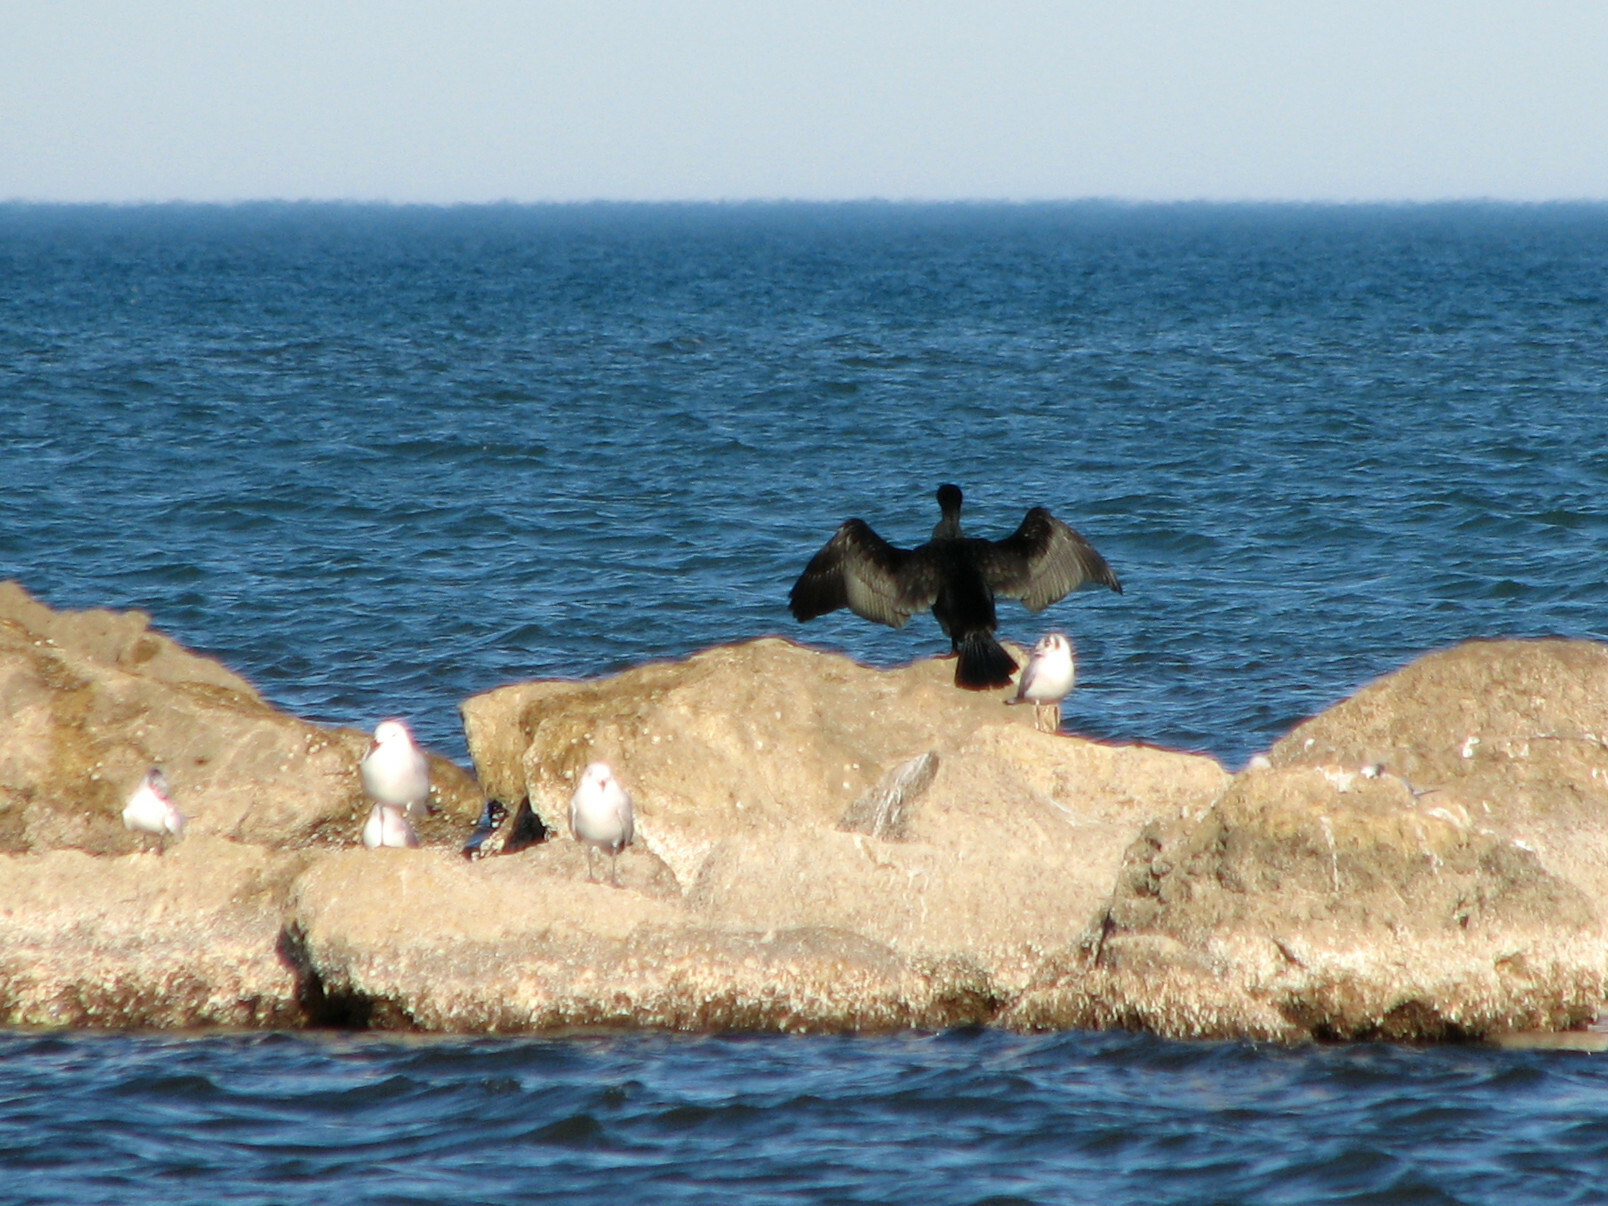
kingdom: Animalia
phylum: Chordata
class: Aves
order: Suliformes
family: Phalacrocoracidae
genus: Phalacrocorax
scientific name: Phalacrocorax carbo
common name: Great cormorant
